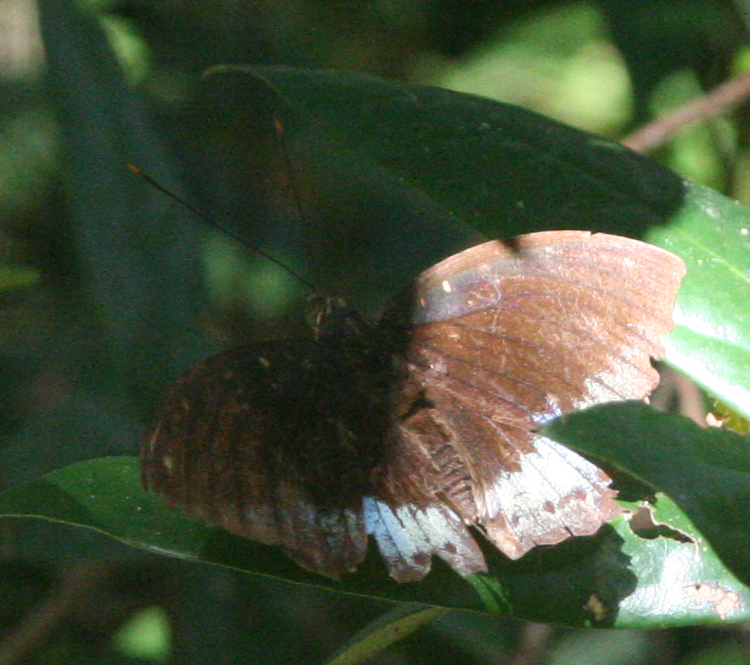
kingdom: Animalia
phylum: Arthropoda
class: Insecta
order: Lepidoptera
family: Nymphalidae
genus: Lexias
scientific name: Lexias pardalis
